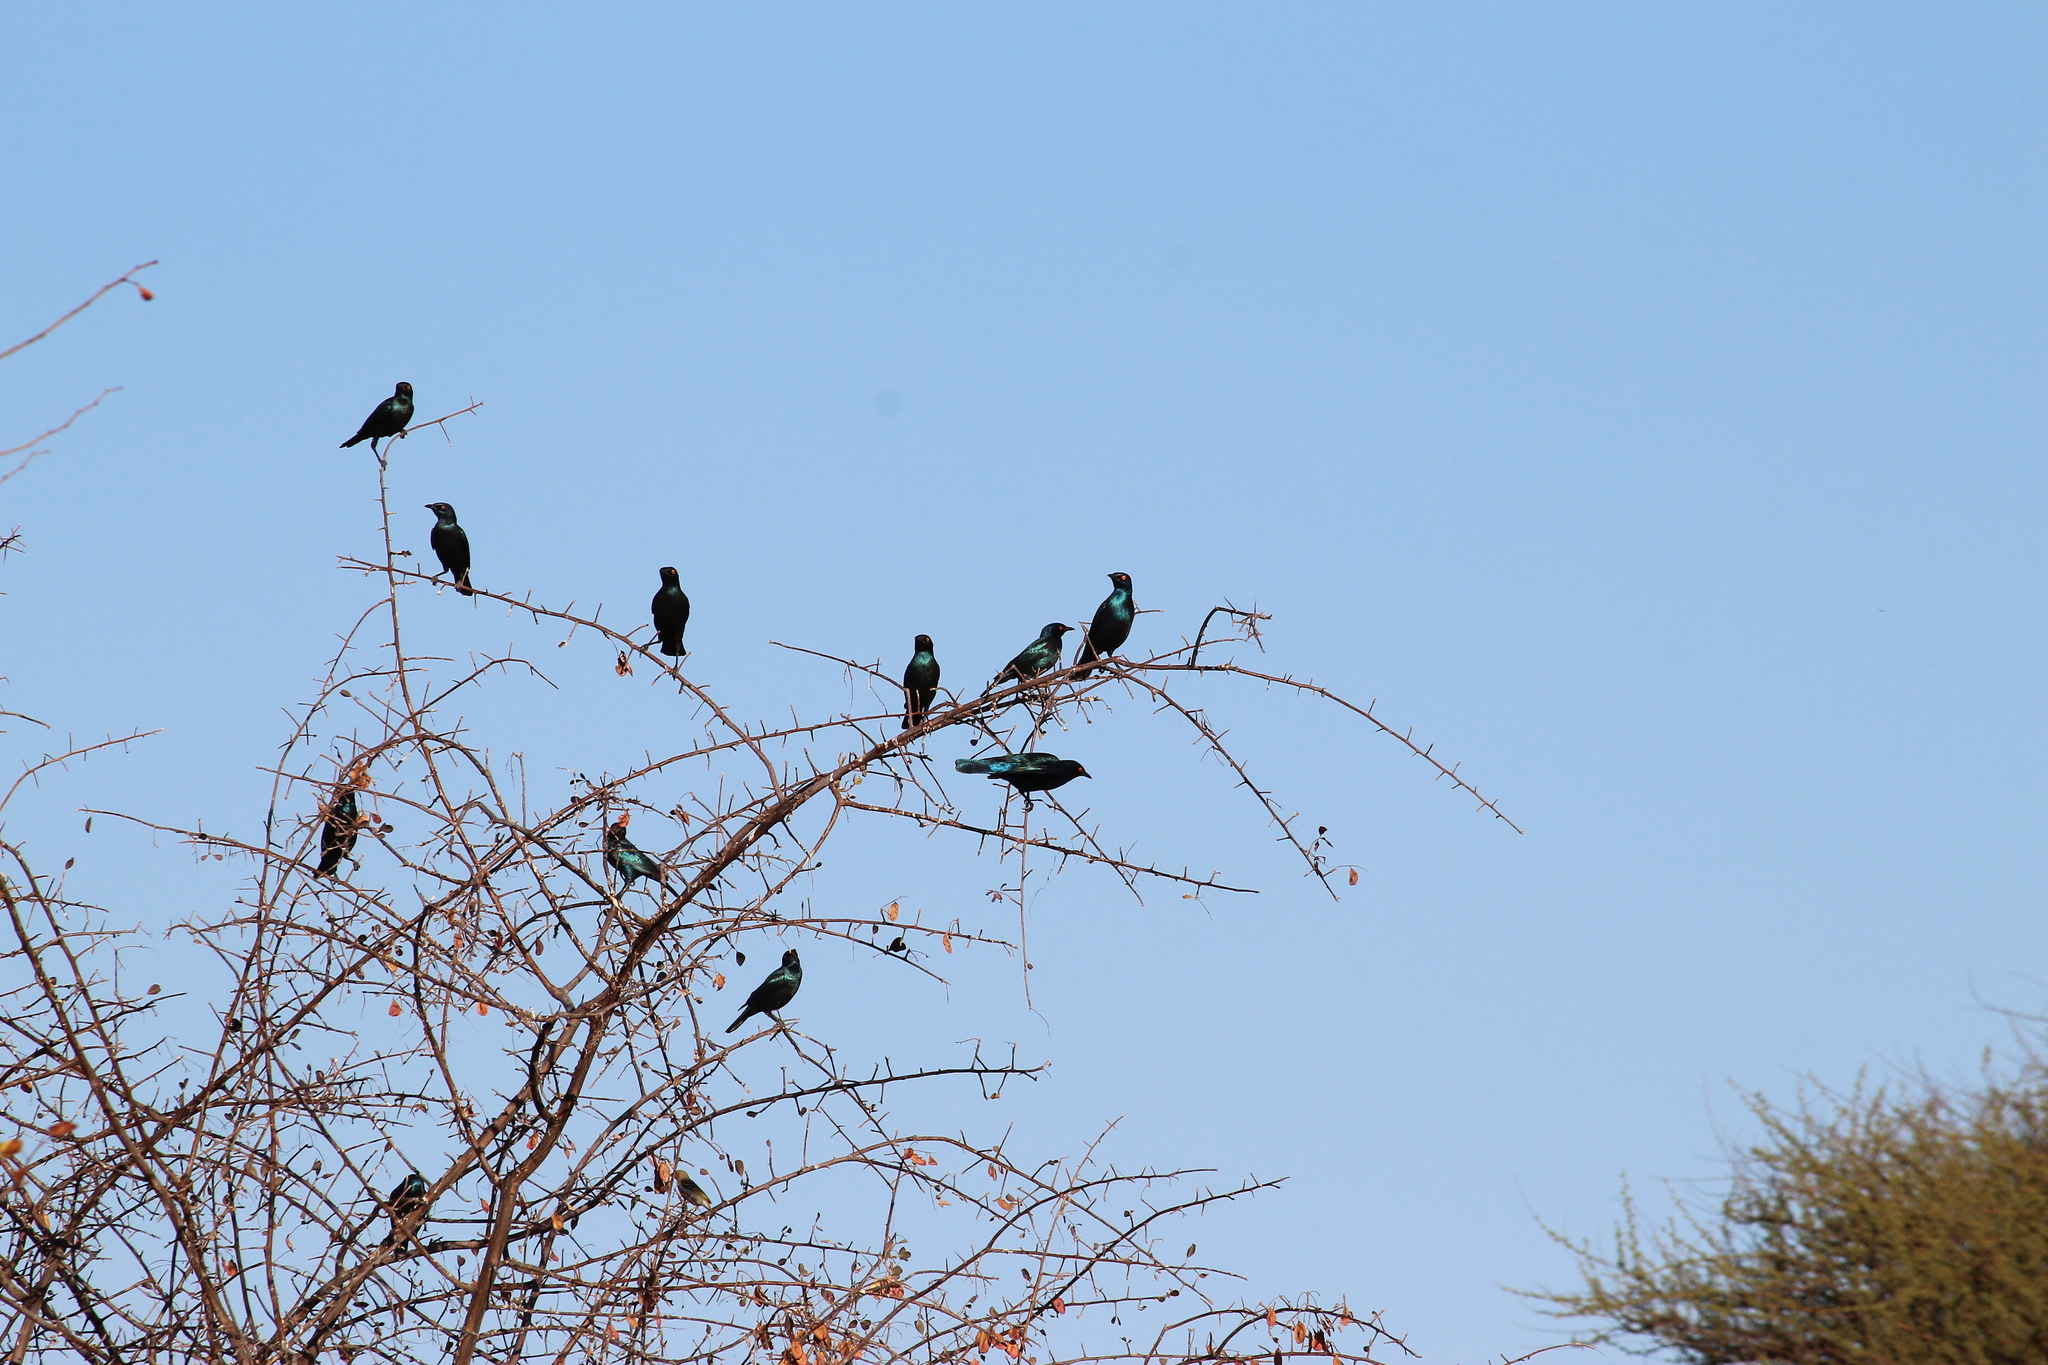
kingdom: Animalia
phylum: Chordata
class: Aves
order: Passeriformes
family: Sturnidae
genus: Lamprotornis
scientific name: Lamprotornis nitens
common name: Cape starling
